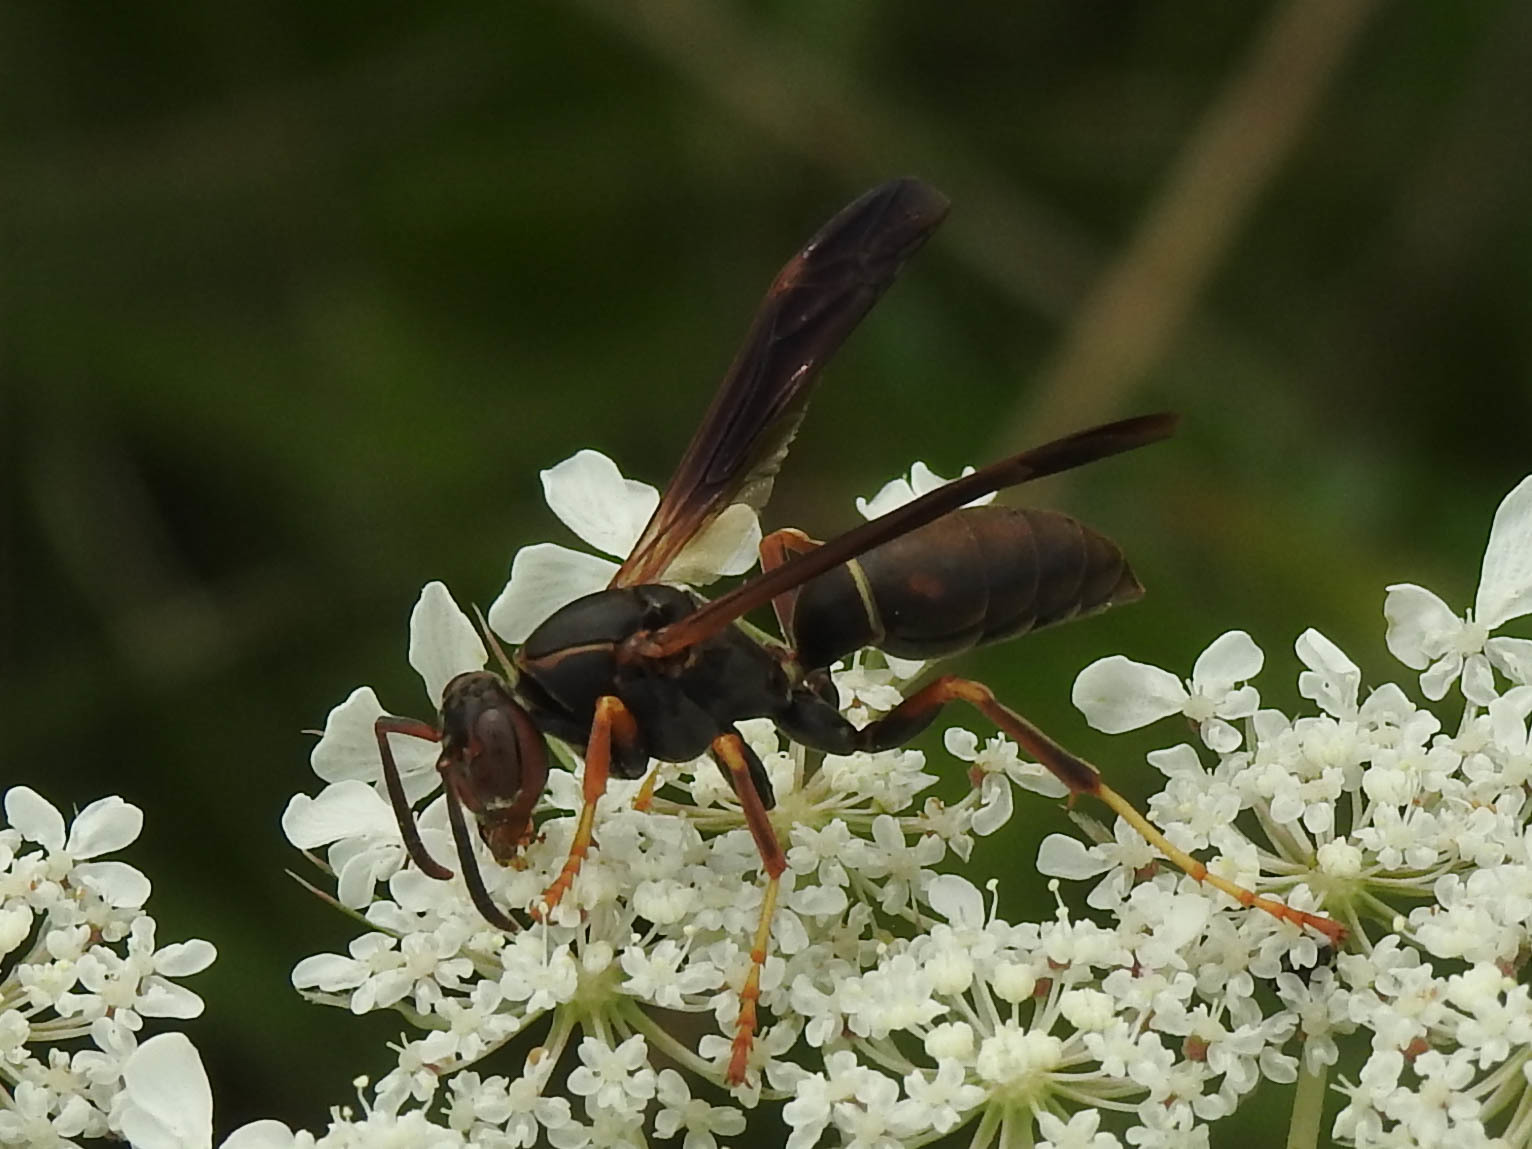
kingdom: Animalia
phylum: Arthropoda
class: Insecta
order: Hymenoptera
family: Eumenidae
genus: Polistes
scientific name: Polistes fuscatus
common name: Dark paper wasp
